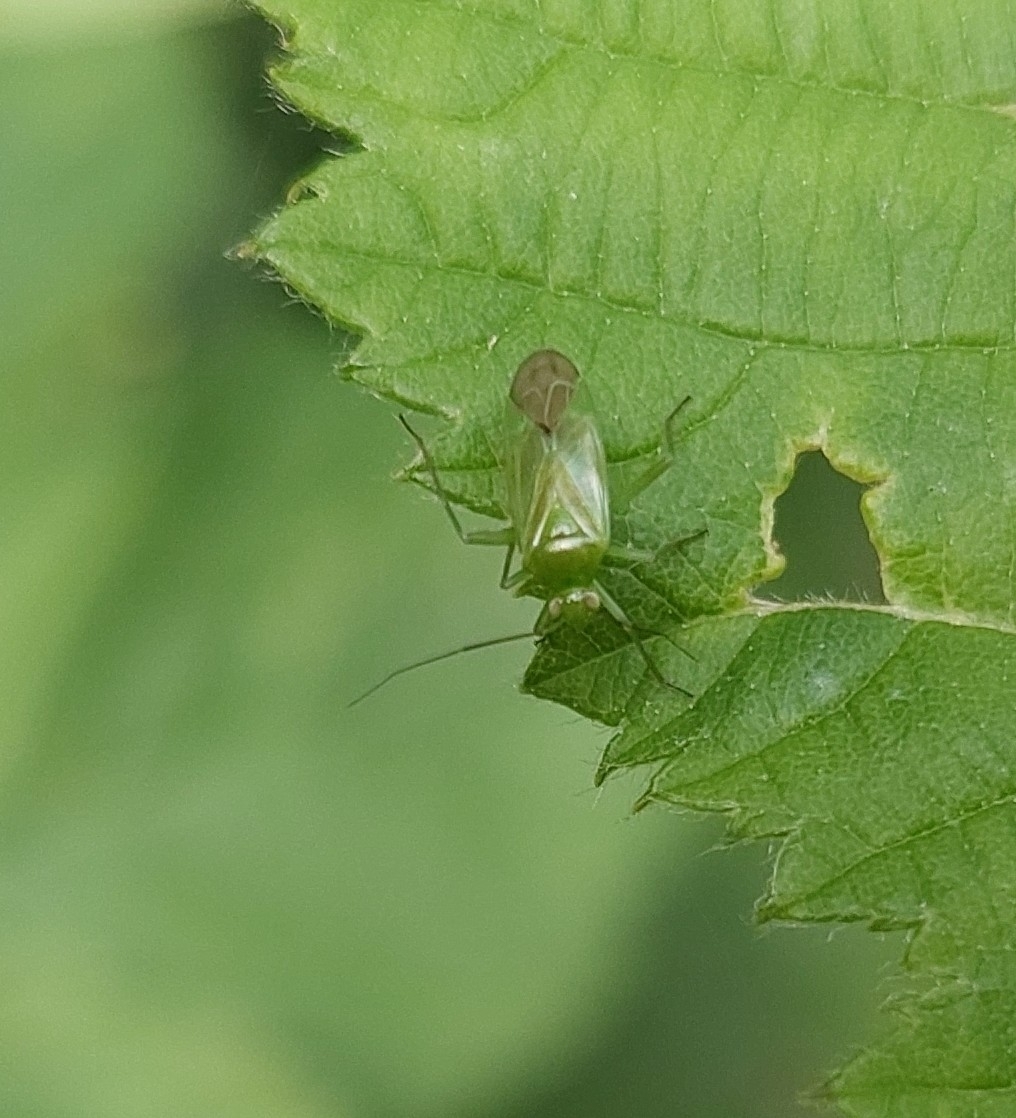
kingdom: Animalia
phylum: Arthropoda
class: Insecta
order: Hemiptera
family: Miridae
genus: Lygocoris
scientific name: Lygocoris pabulinus
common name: Common green capsid
